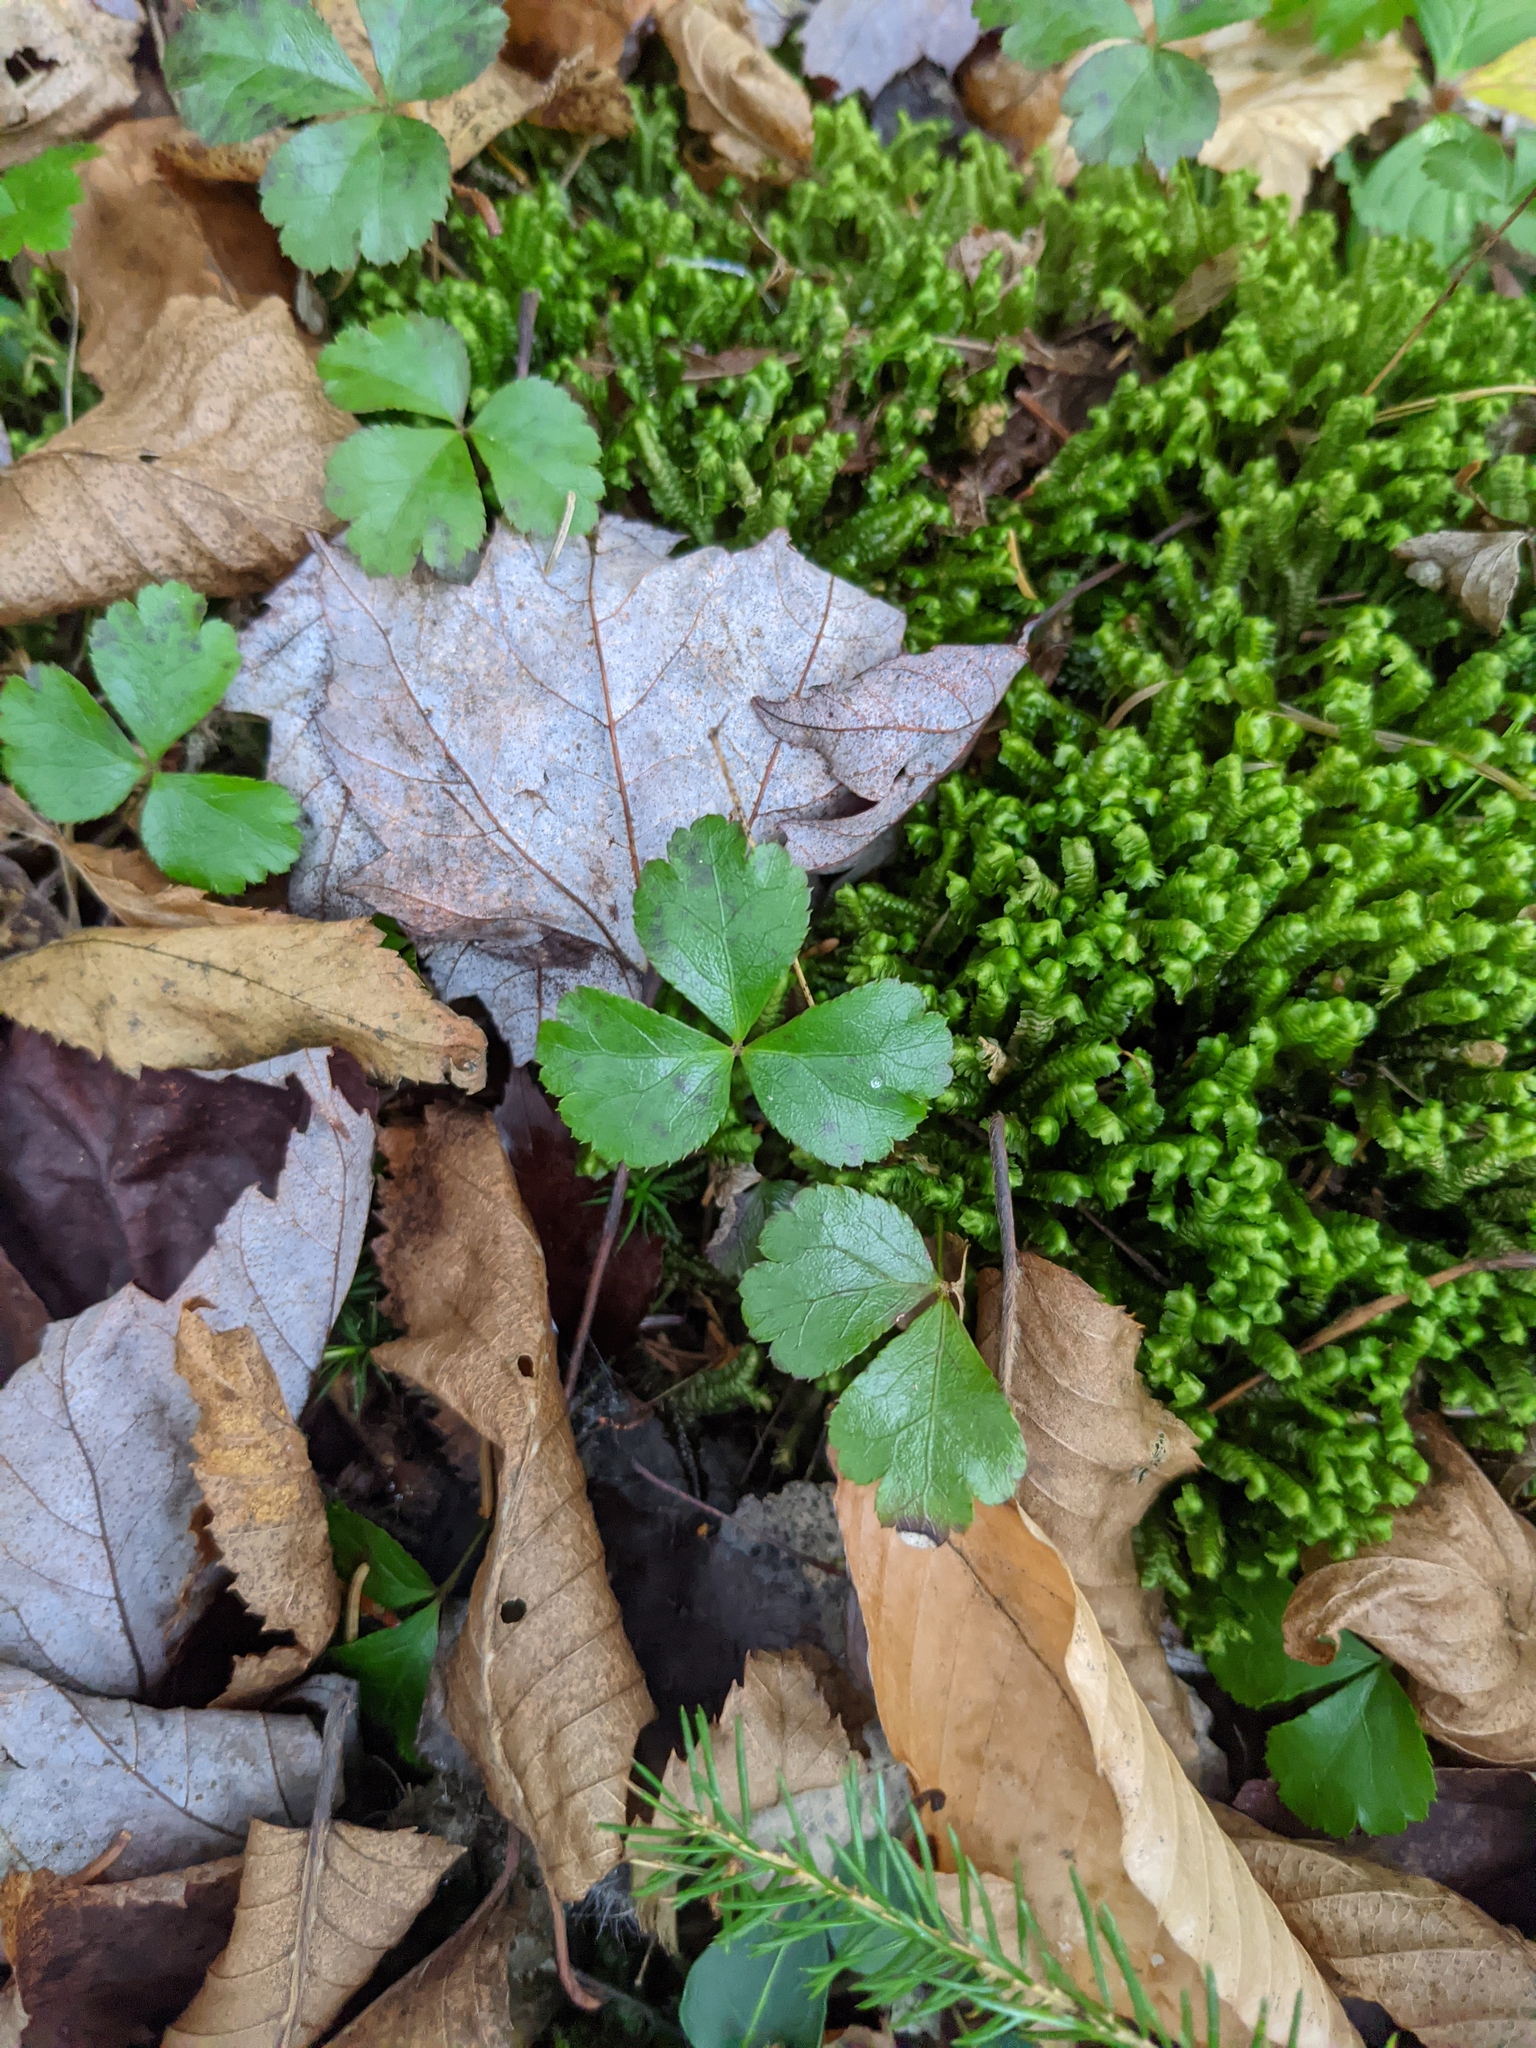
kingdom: Plantae
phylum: Tracheophyta
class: Magnoliopsida
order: Ranunculales
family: Ranunculaceae
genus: Coptis
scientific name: Coptis trifolia
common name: Canker-root
